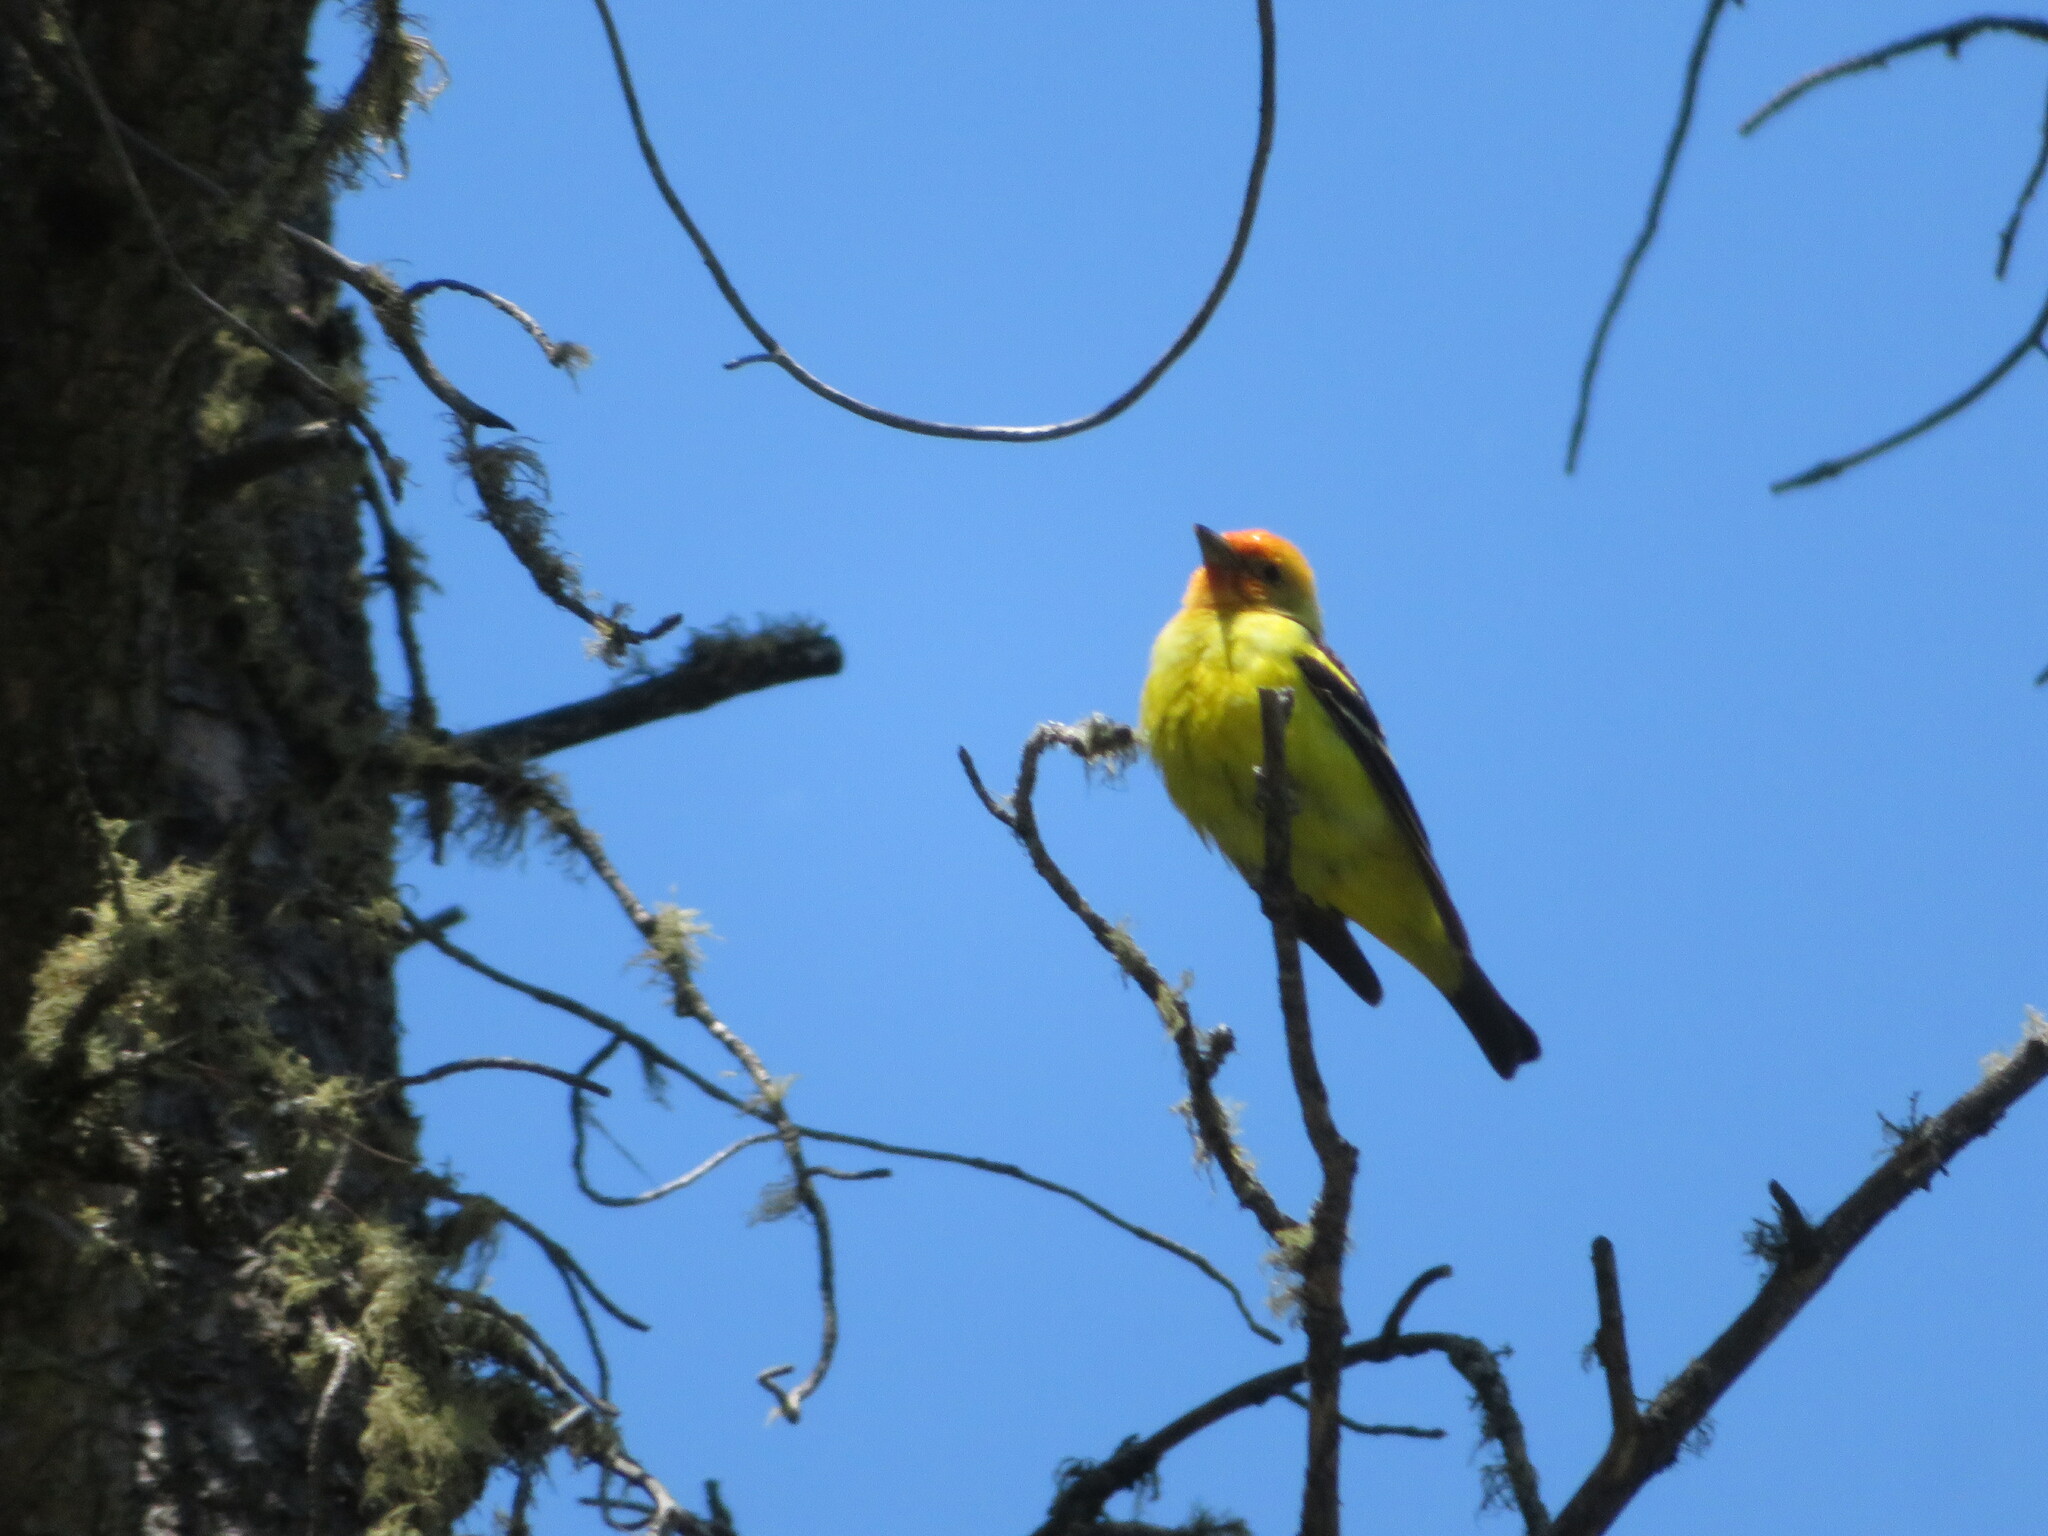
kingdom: Animalia
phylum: Chordata
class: Aves
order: Passeriformes
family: Cardinalidae
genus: Piranga
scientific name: Piranga ludoviciana
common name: Western tanager
